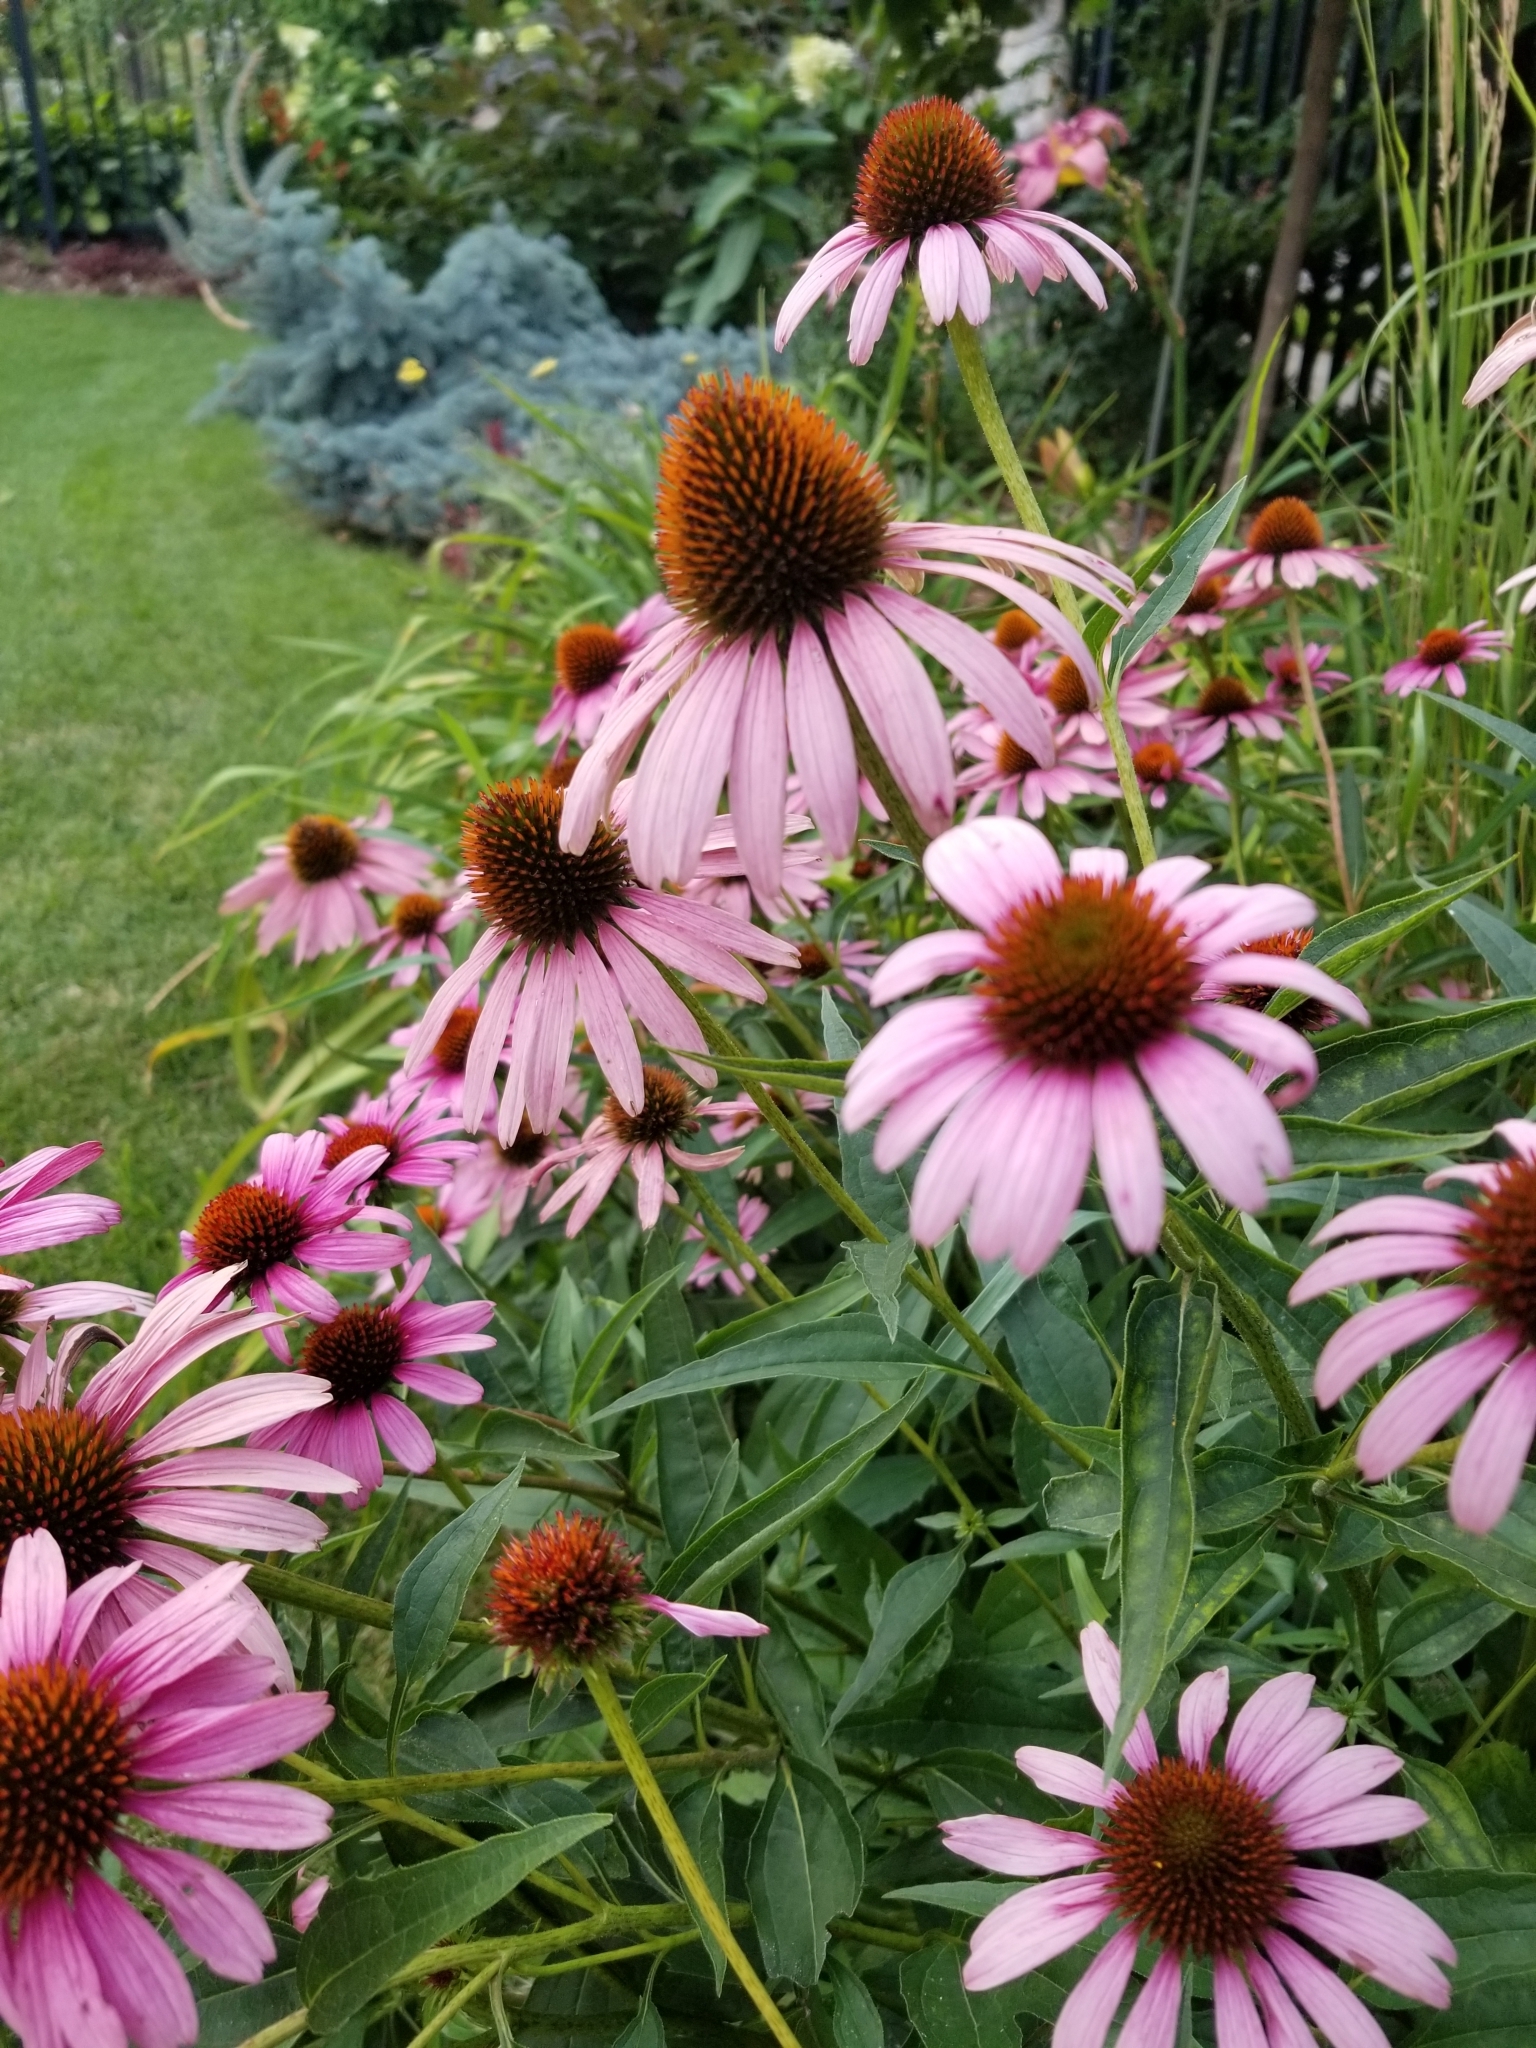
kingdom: Plantae
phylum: Tracheophyta
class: Magnoliopsida
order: Asterales
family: Asteraceae
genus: Echinacea
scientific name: Echinacea purpurea
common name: Broad-leaved purple coneflower
